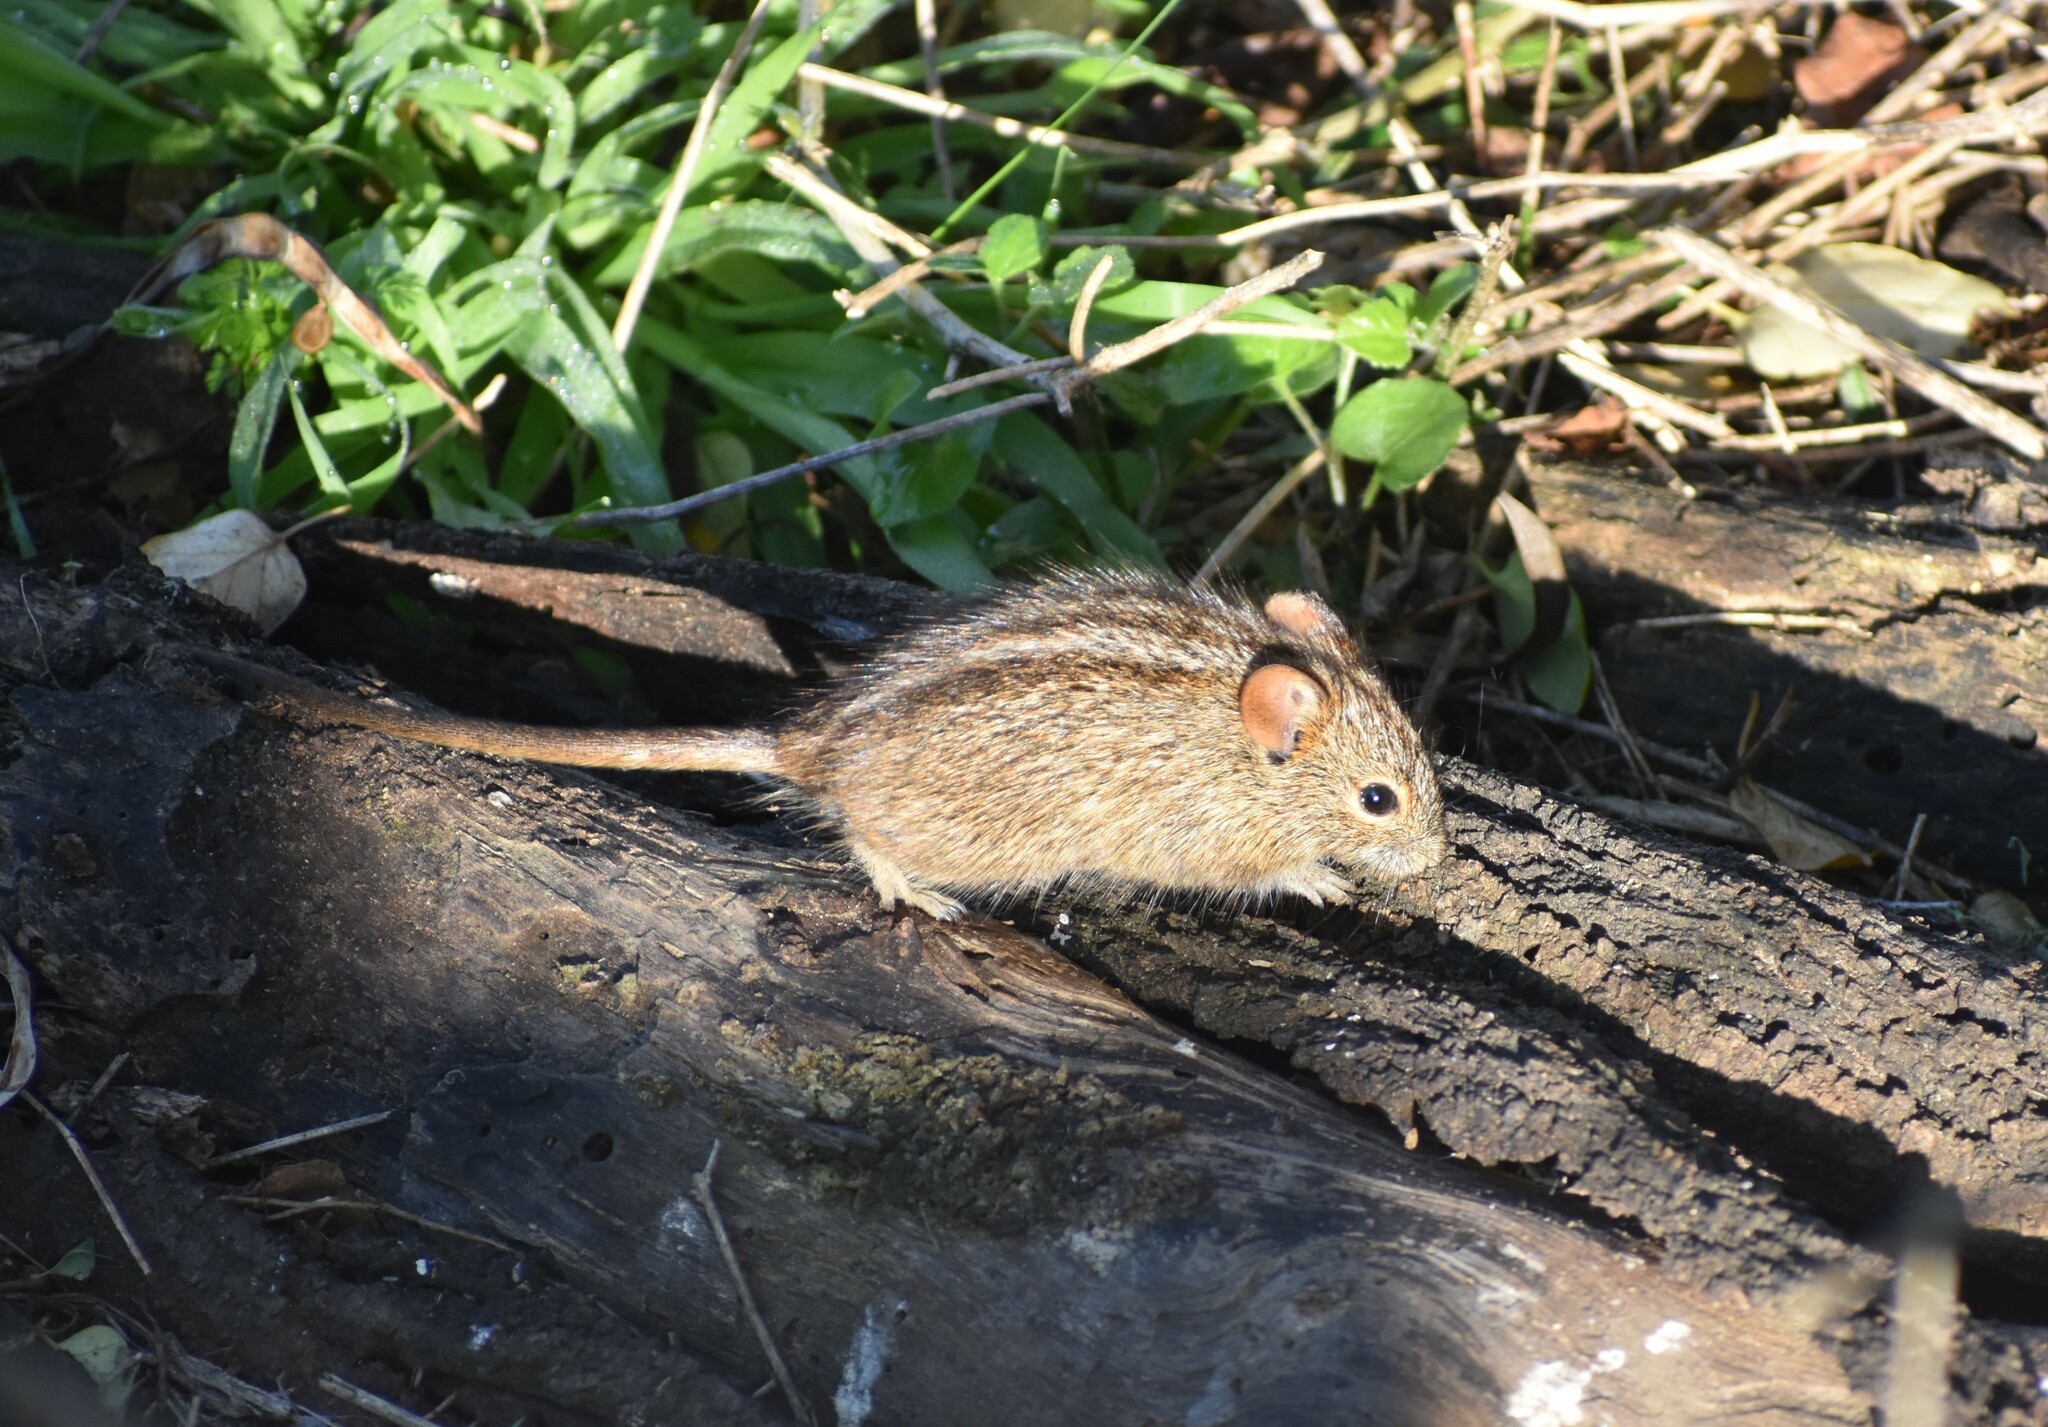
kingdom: Animalia
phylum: Chordata
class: Mammalia
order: Rodentia
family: Muridae
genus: Rhabdomys
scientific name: Rhabdomys pumilio
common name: Xeric four-striped grass rat
